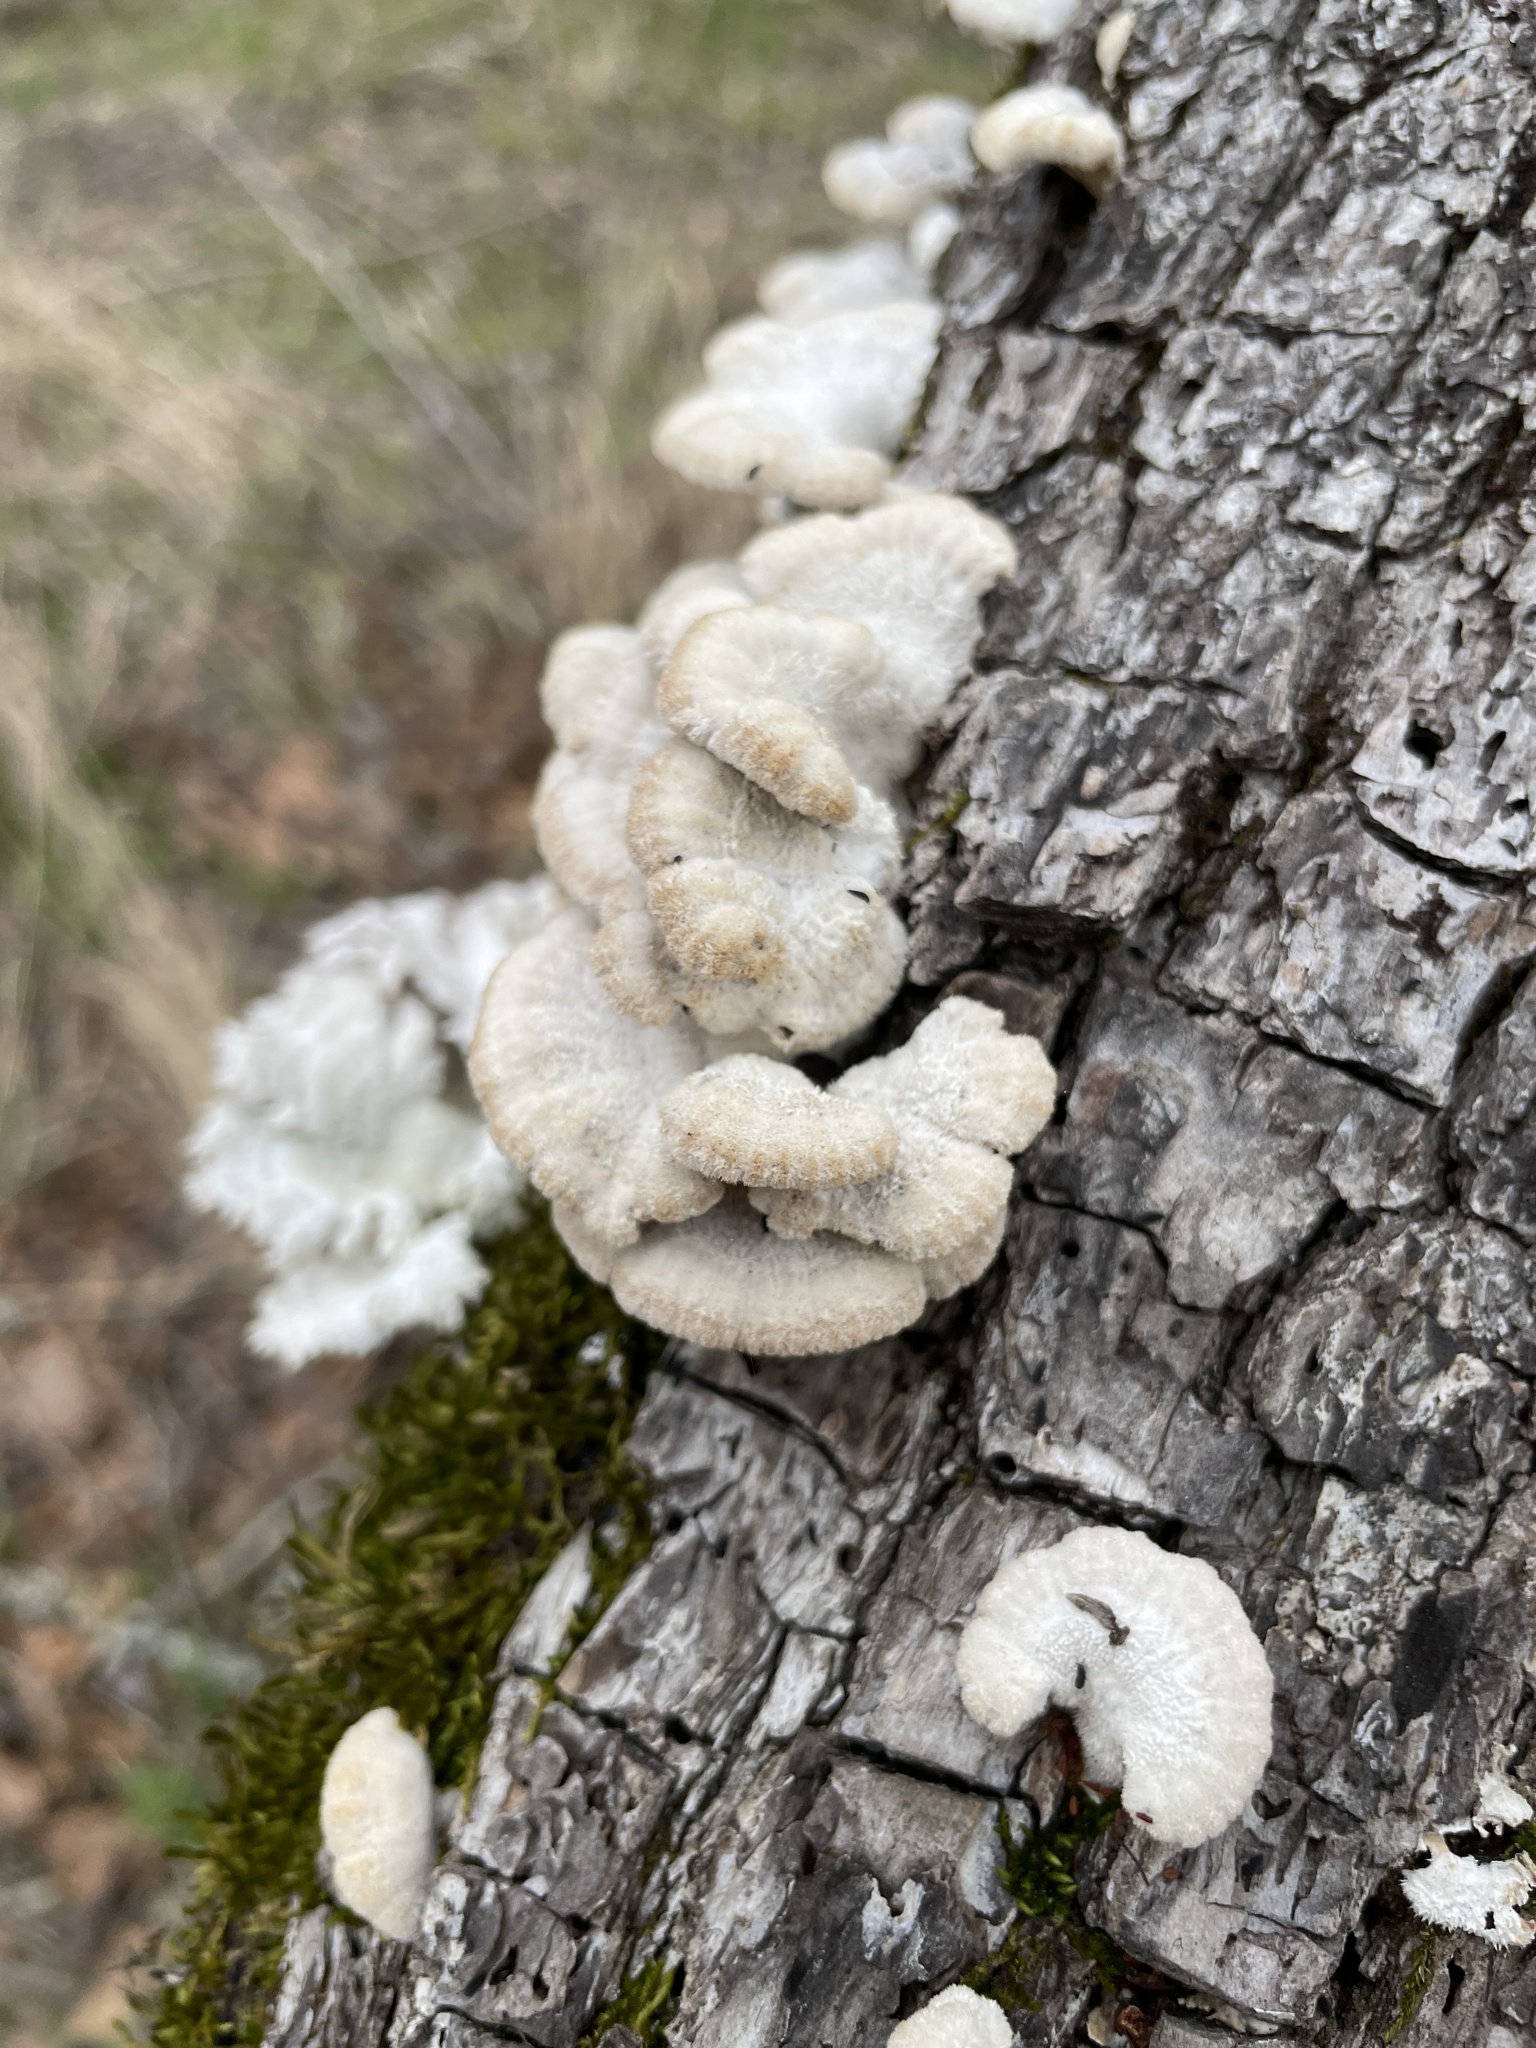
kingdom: Fungi
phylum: Basidiomycota
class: Agaricomycetes
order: Agaricales
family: Schizophyllaceae
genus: Schizophyllum
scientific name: Schizophyllum commune
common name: Common porecrust
